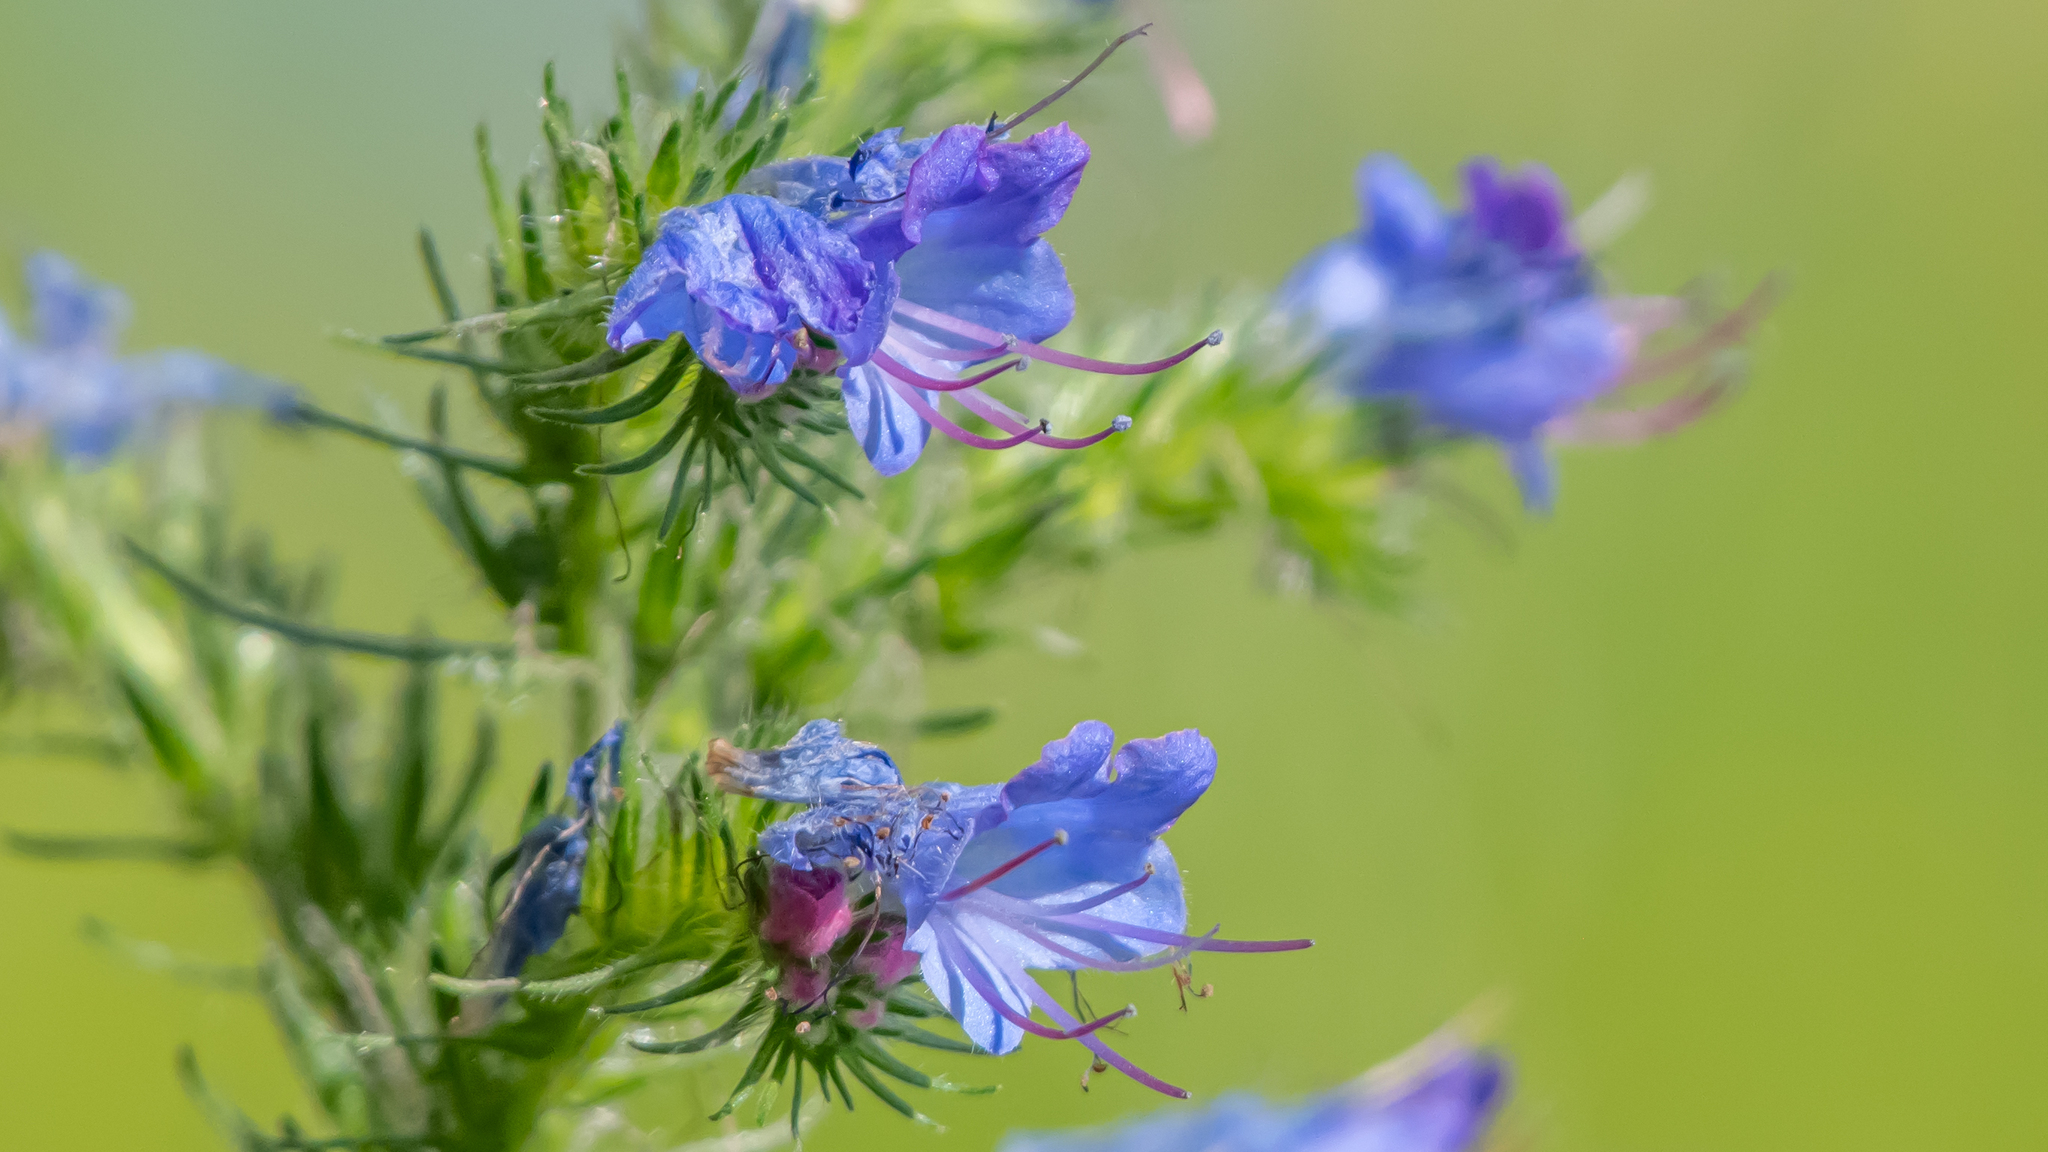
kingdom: Plantae
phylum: Tracheophyta
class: Magnoliopsida
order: Boraginales
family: Boraginaceae
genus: Echium
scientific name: Echium vulgare
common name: Common viper's bugloss
